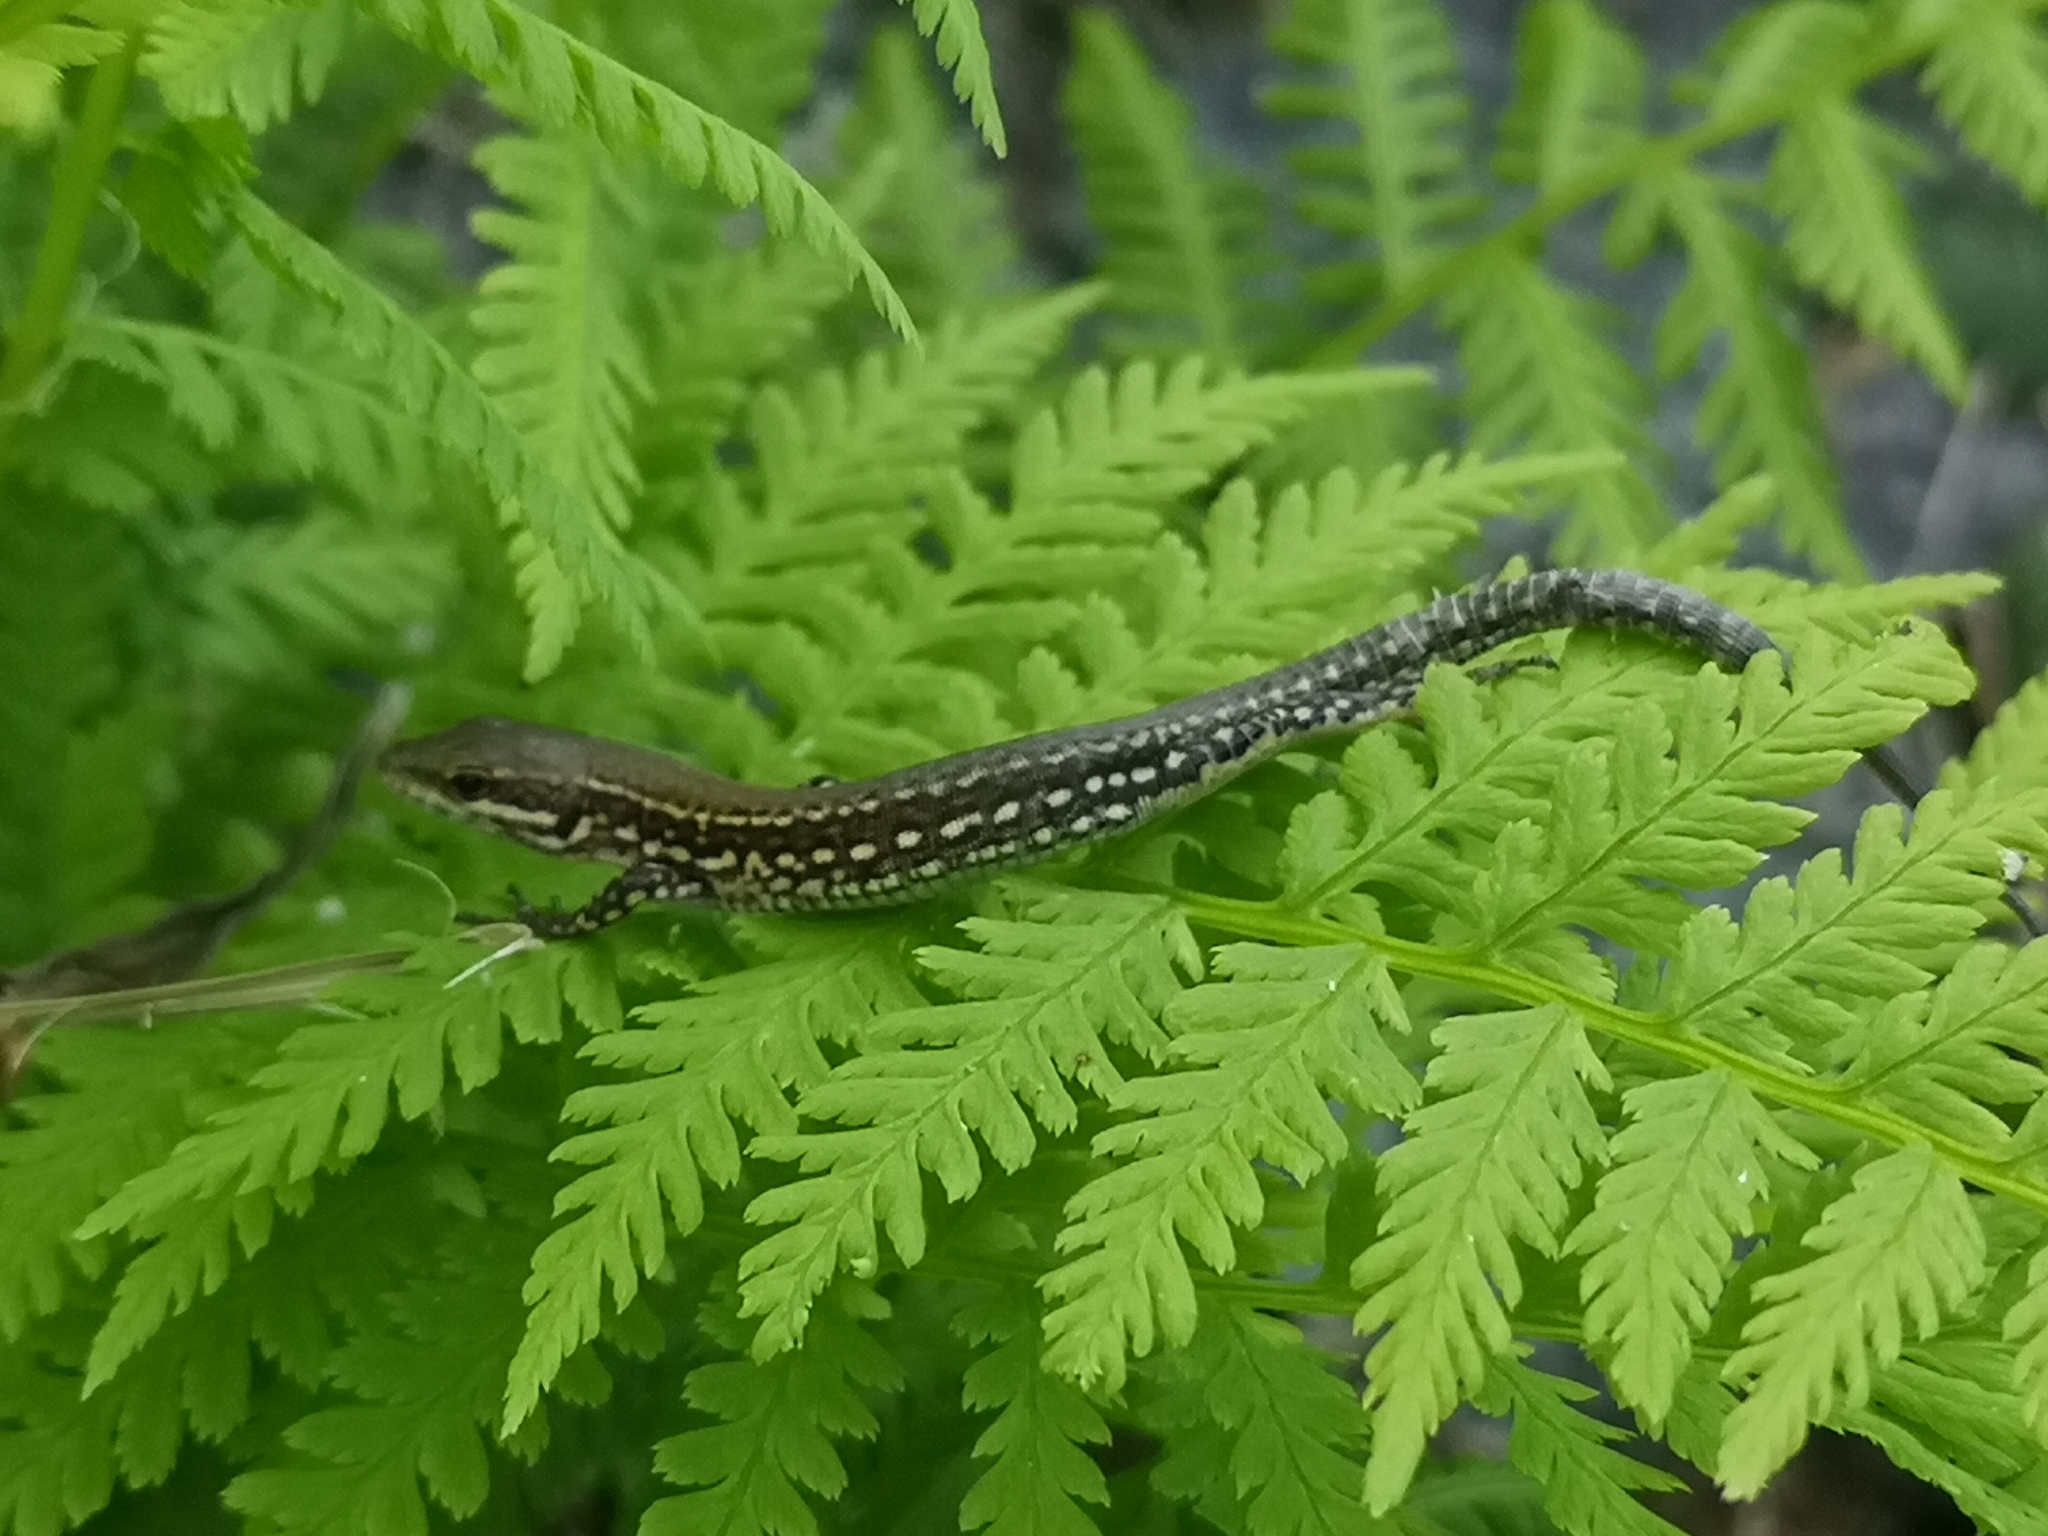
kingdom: Animalia
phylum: Chordata
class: Squamata
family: Lacertidae
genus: Podarcis
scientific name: Podarcis muralis
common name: Common wall lizard
